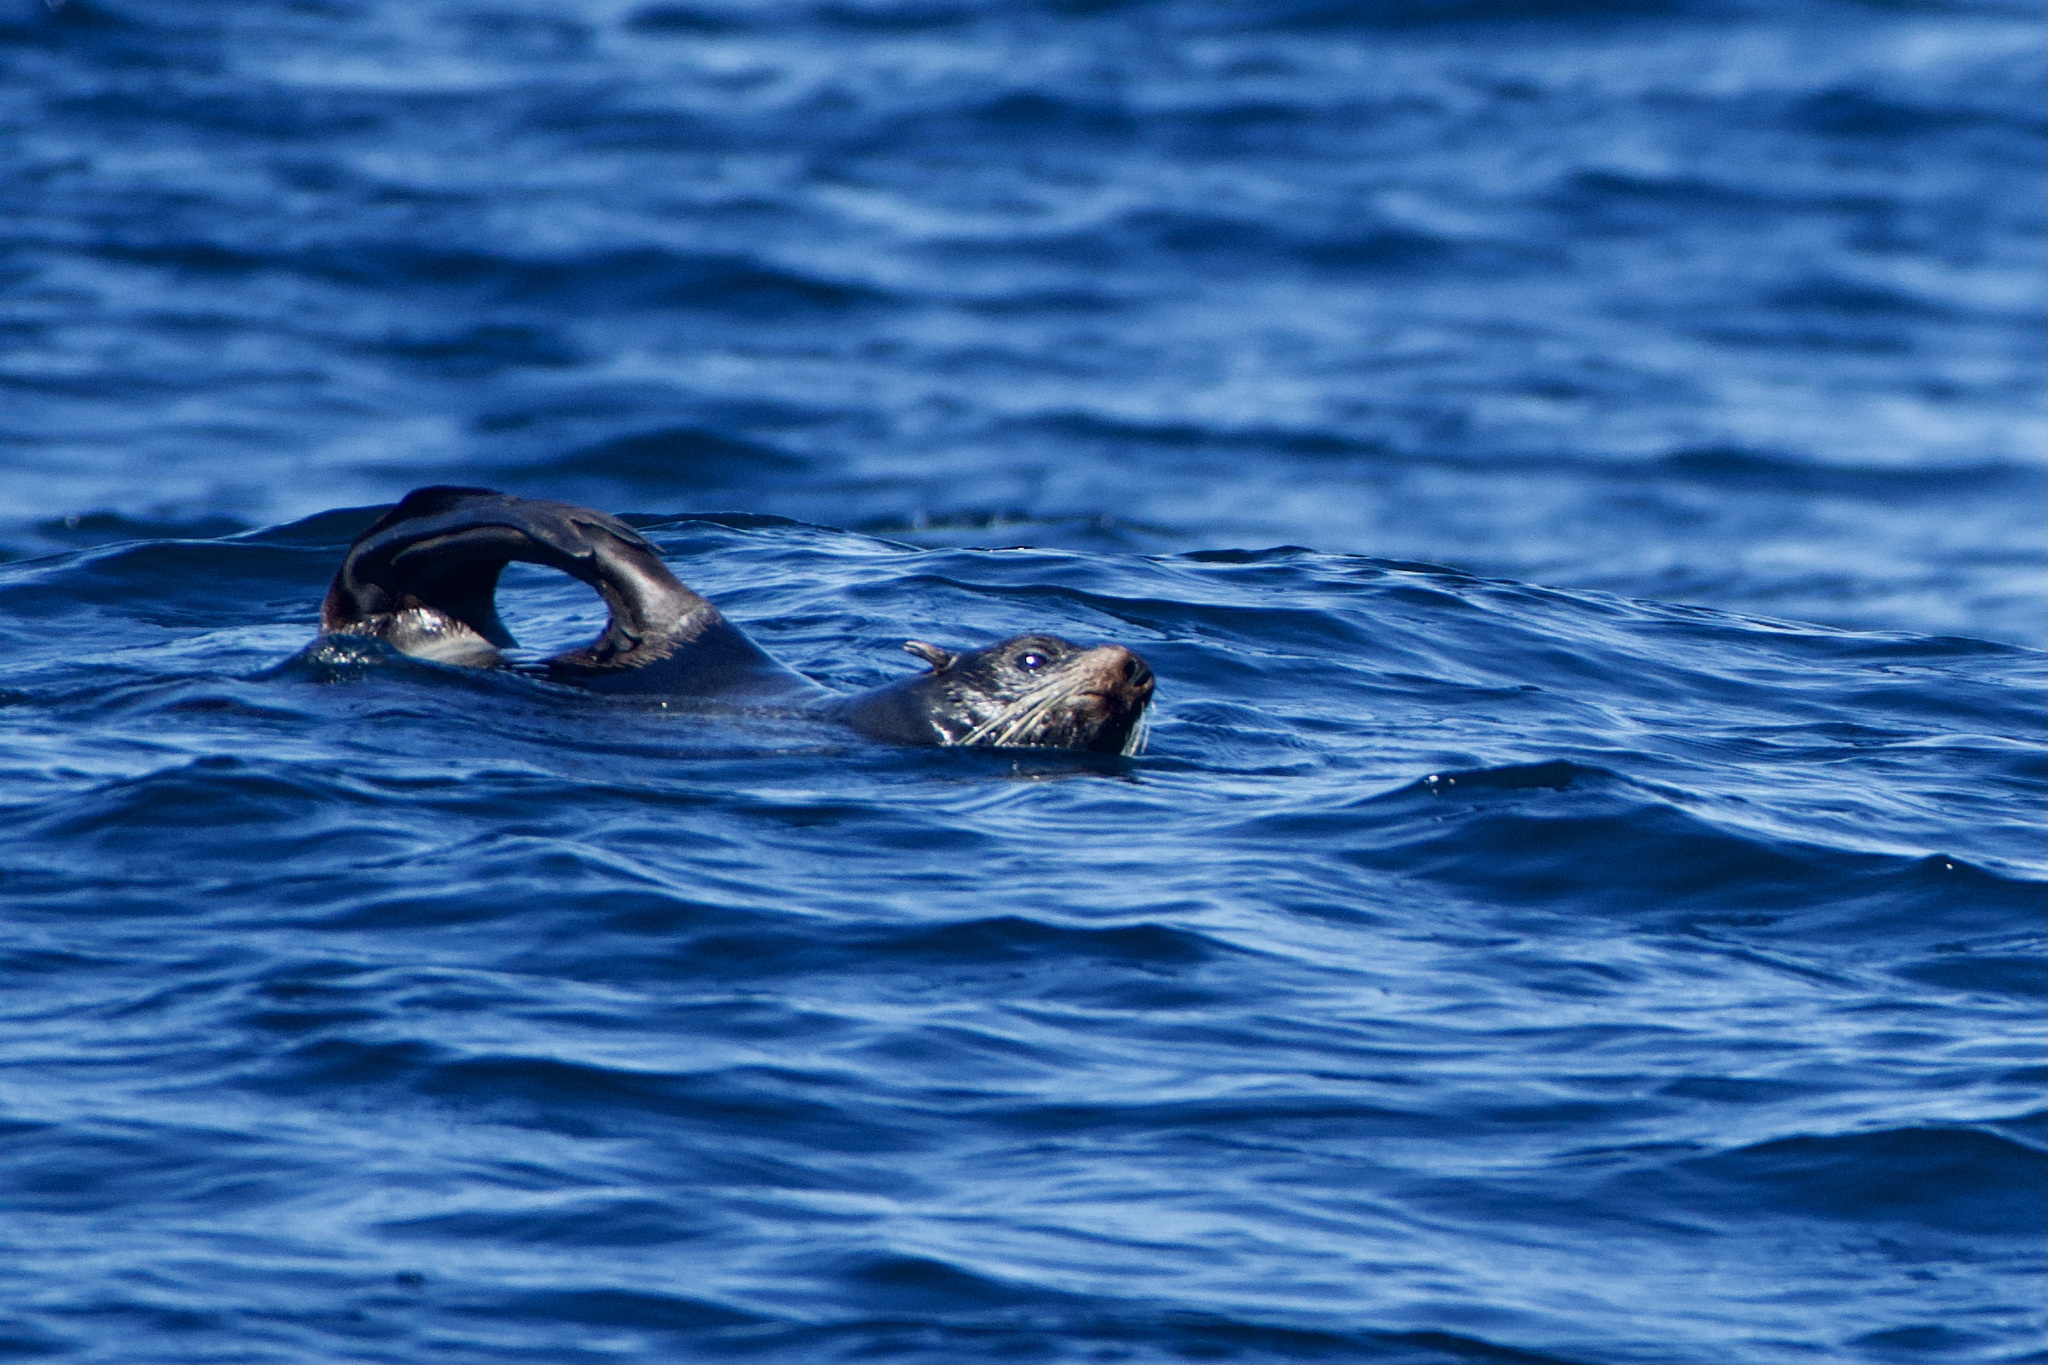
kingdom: Animalia
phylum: Chordata
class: Mammalia
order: Carnivora
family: Otariidae
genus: Arctocephalus
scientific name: Arctocephalus philippii
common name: Juan fernández fur seal
